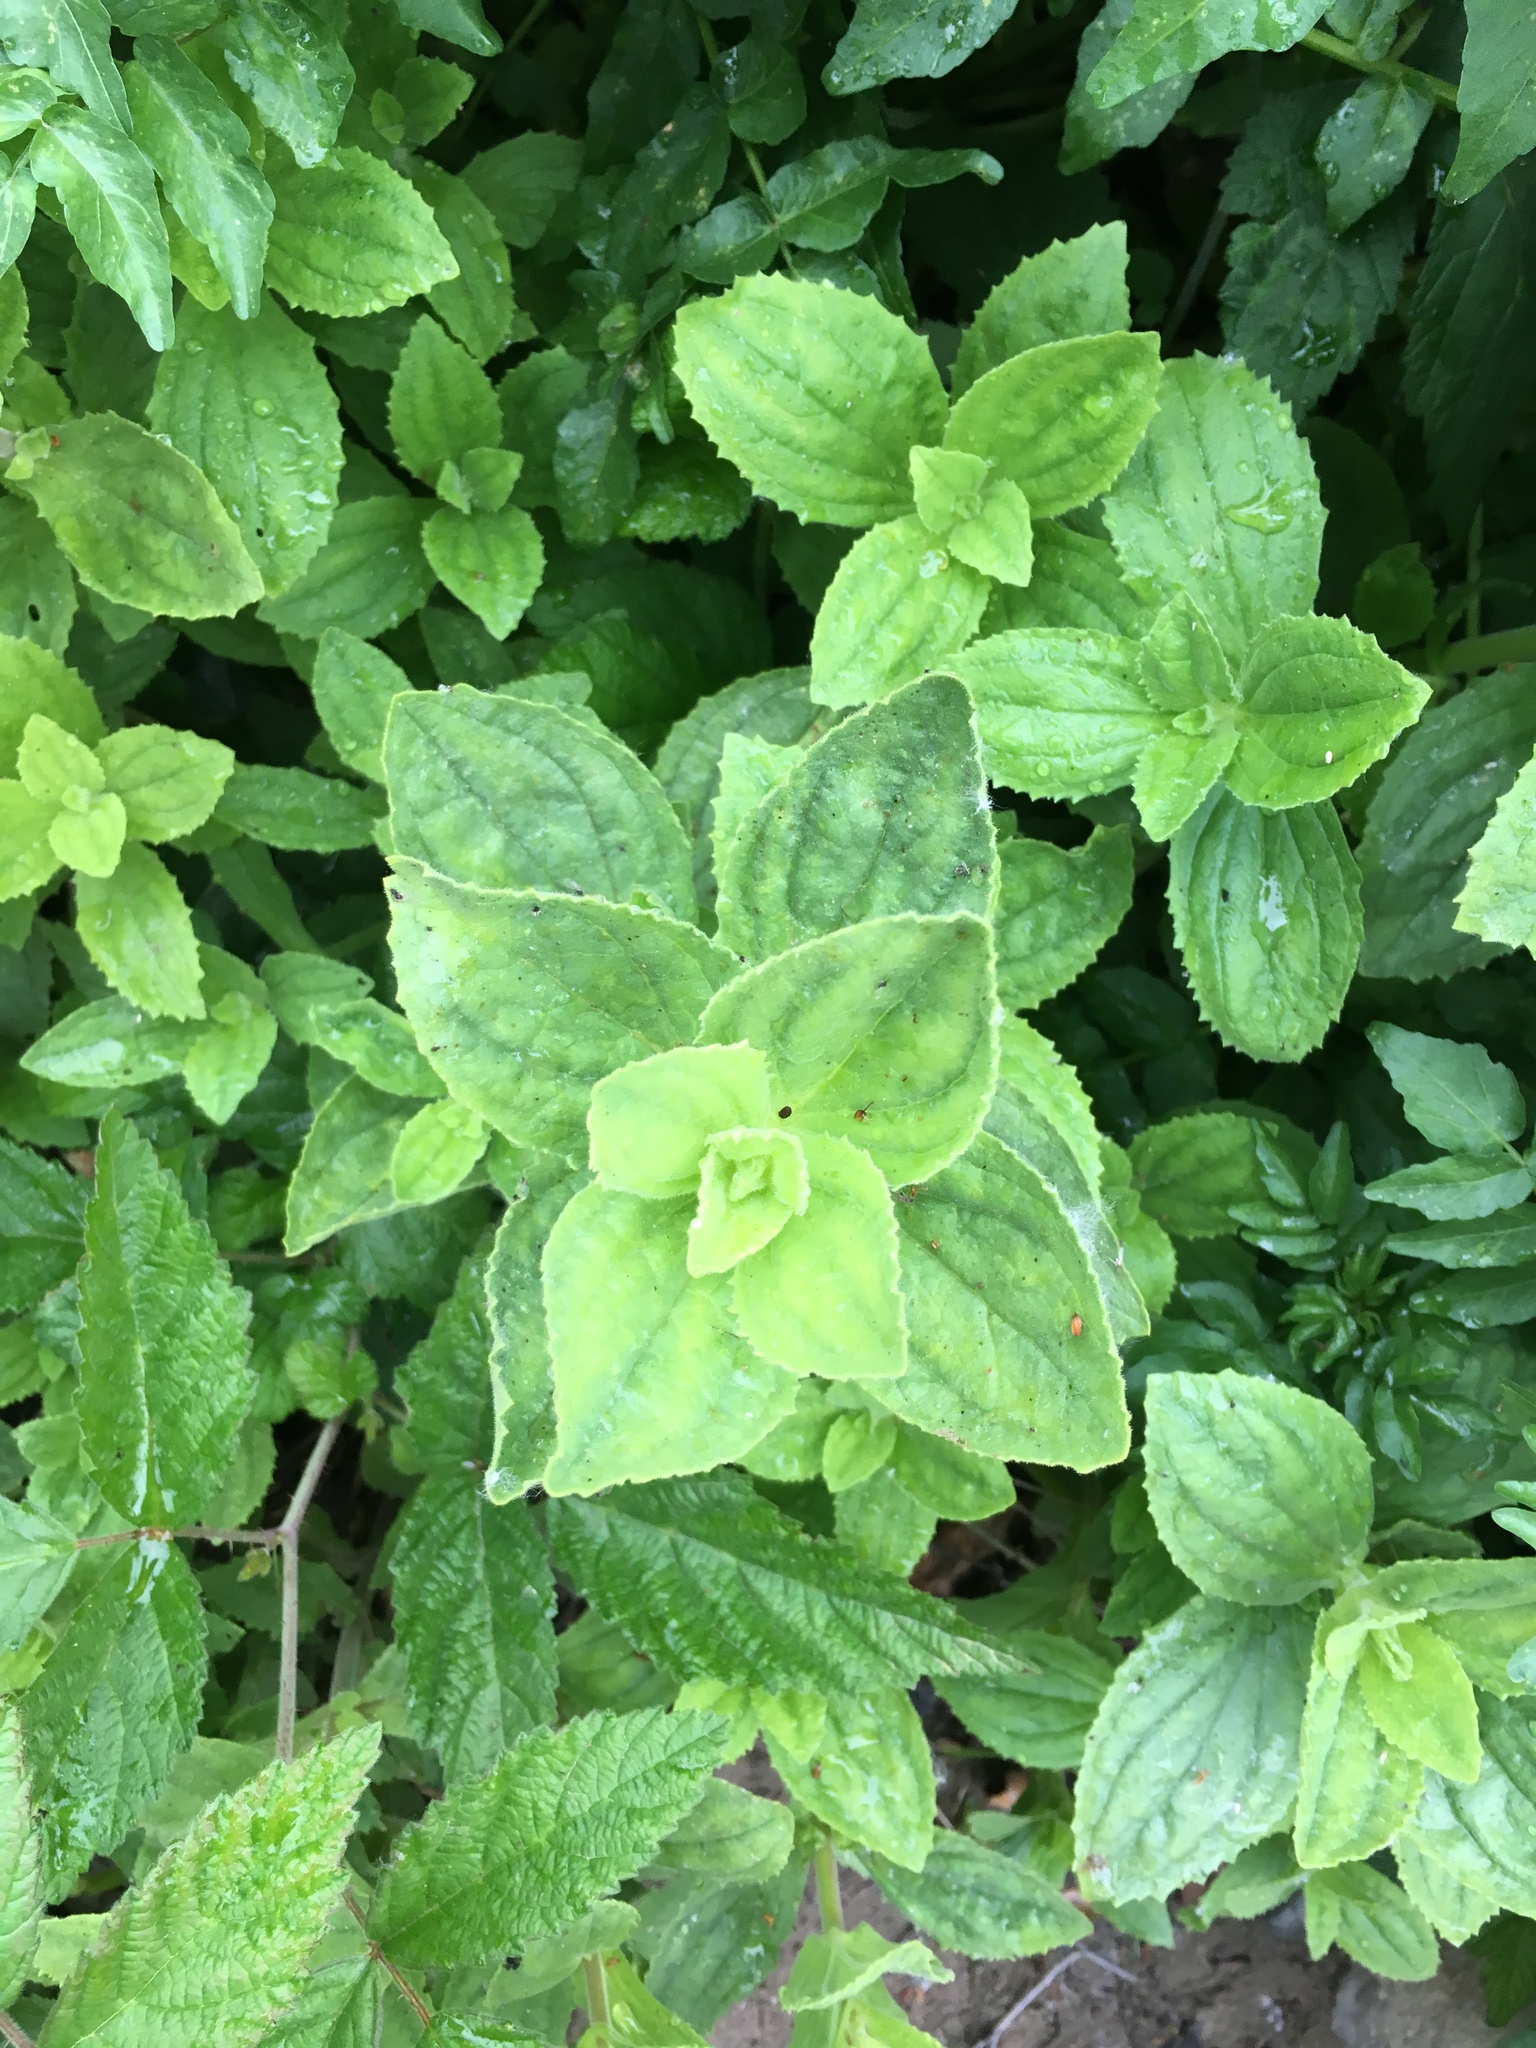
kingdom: Plantae
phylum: Tracheophyta
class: Magnoliopsida
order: Lamiales
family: Phrymaceae
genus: Erythranthe
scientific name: Erythranthe cardinalis
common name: Scarlet monkey-flower
